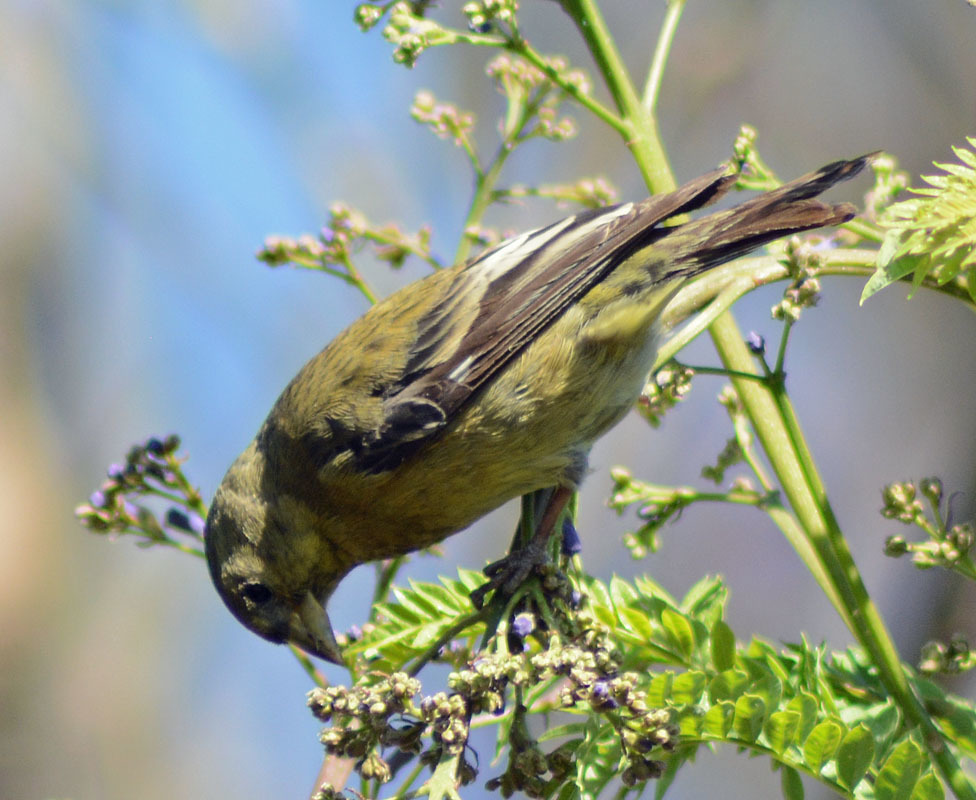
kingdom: Animalia
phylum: Chordata
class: Aves
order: Passeriformes
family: Fringillidae
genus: Spinus
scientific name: Spinus psaltria
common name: Lesser goldfinch
